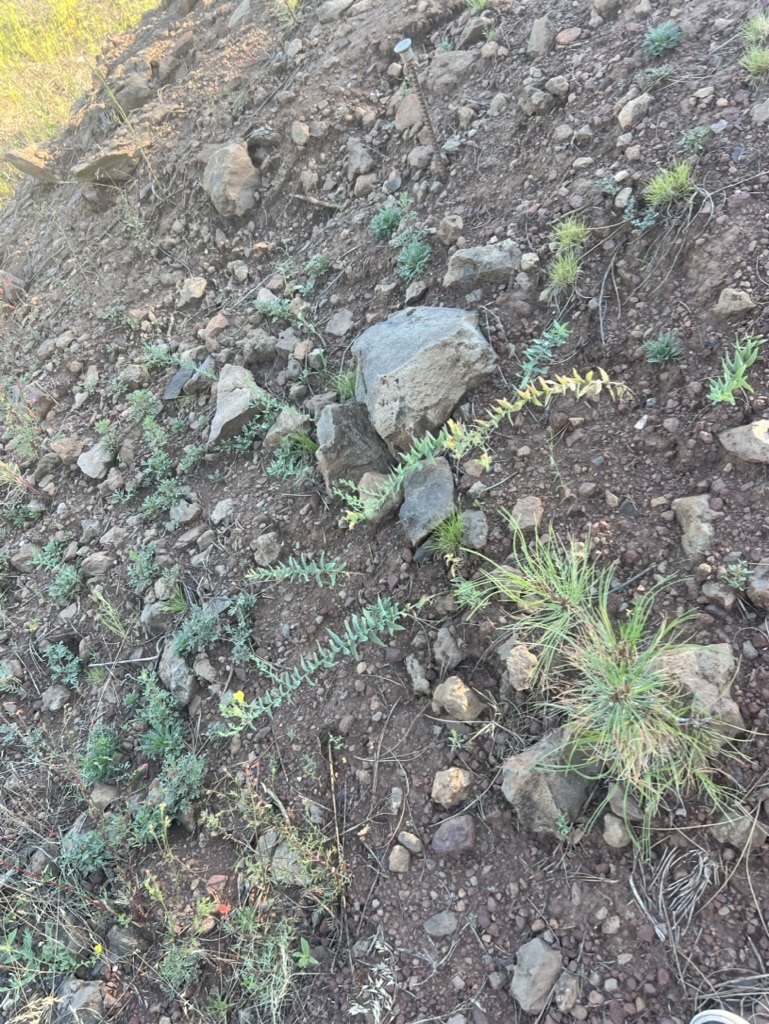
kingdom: Plantae
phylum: Tracheophyta
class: Magnoliopsida
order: Lamiales
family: Plantaginaceae
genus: Linaria
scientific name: Linaria dalmatica
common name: Dalmatian toadflax
